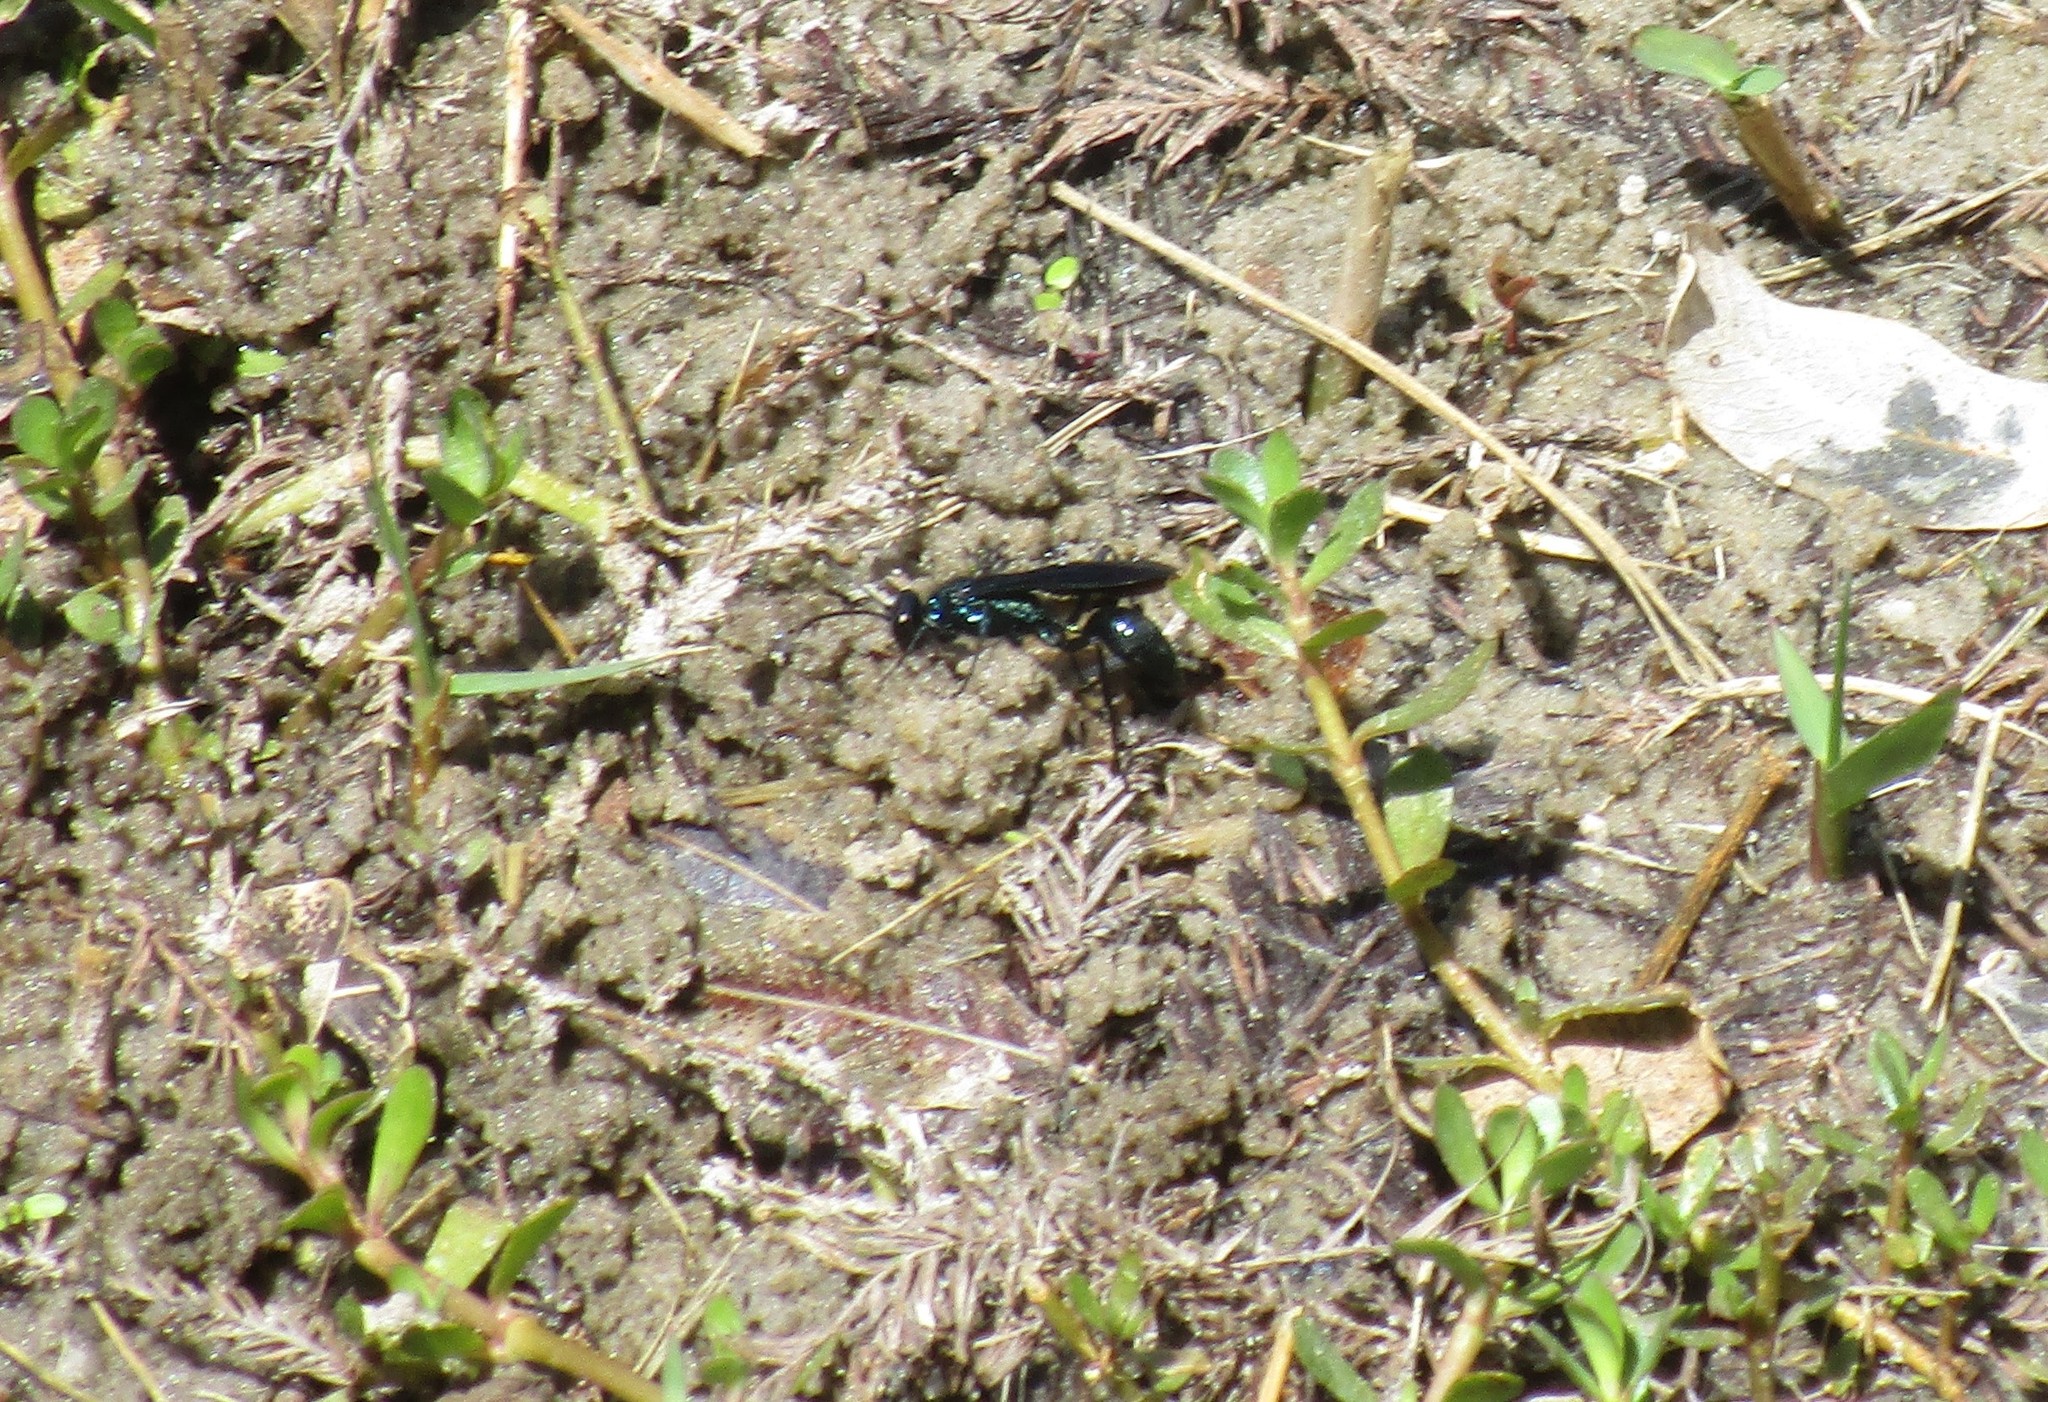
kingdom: Animalia
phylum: Arthropoda
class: Insecta
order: Hymenoptera
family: Sphecidae
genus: Chalybion
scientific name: Chalybion californicum
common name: Mud dauber
